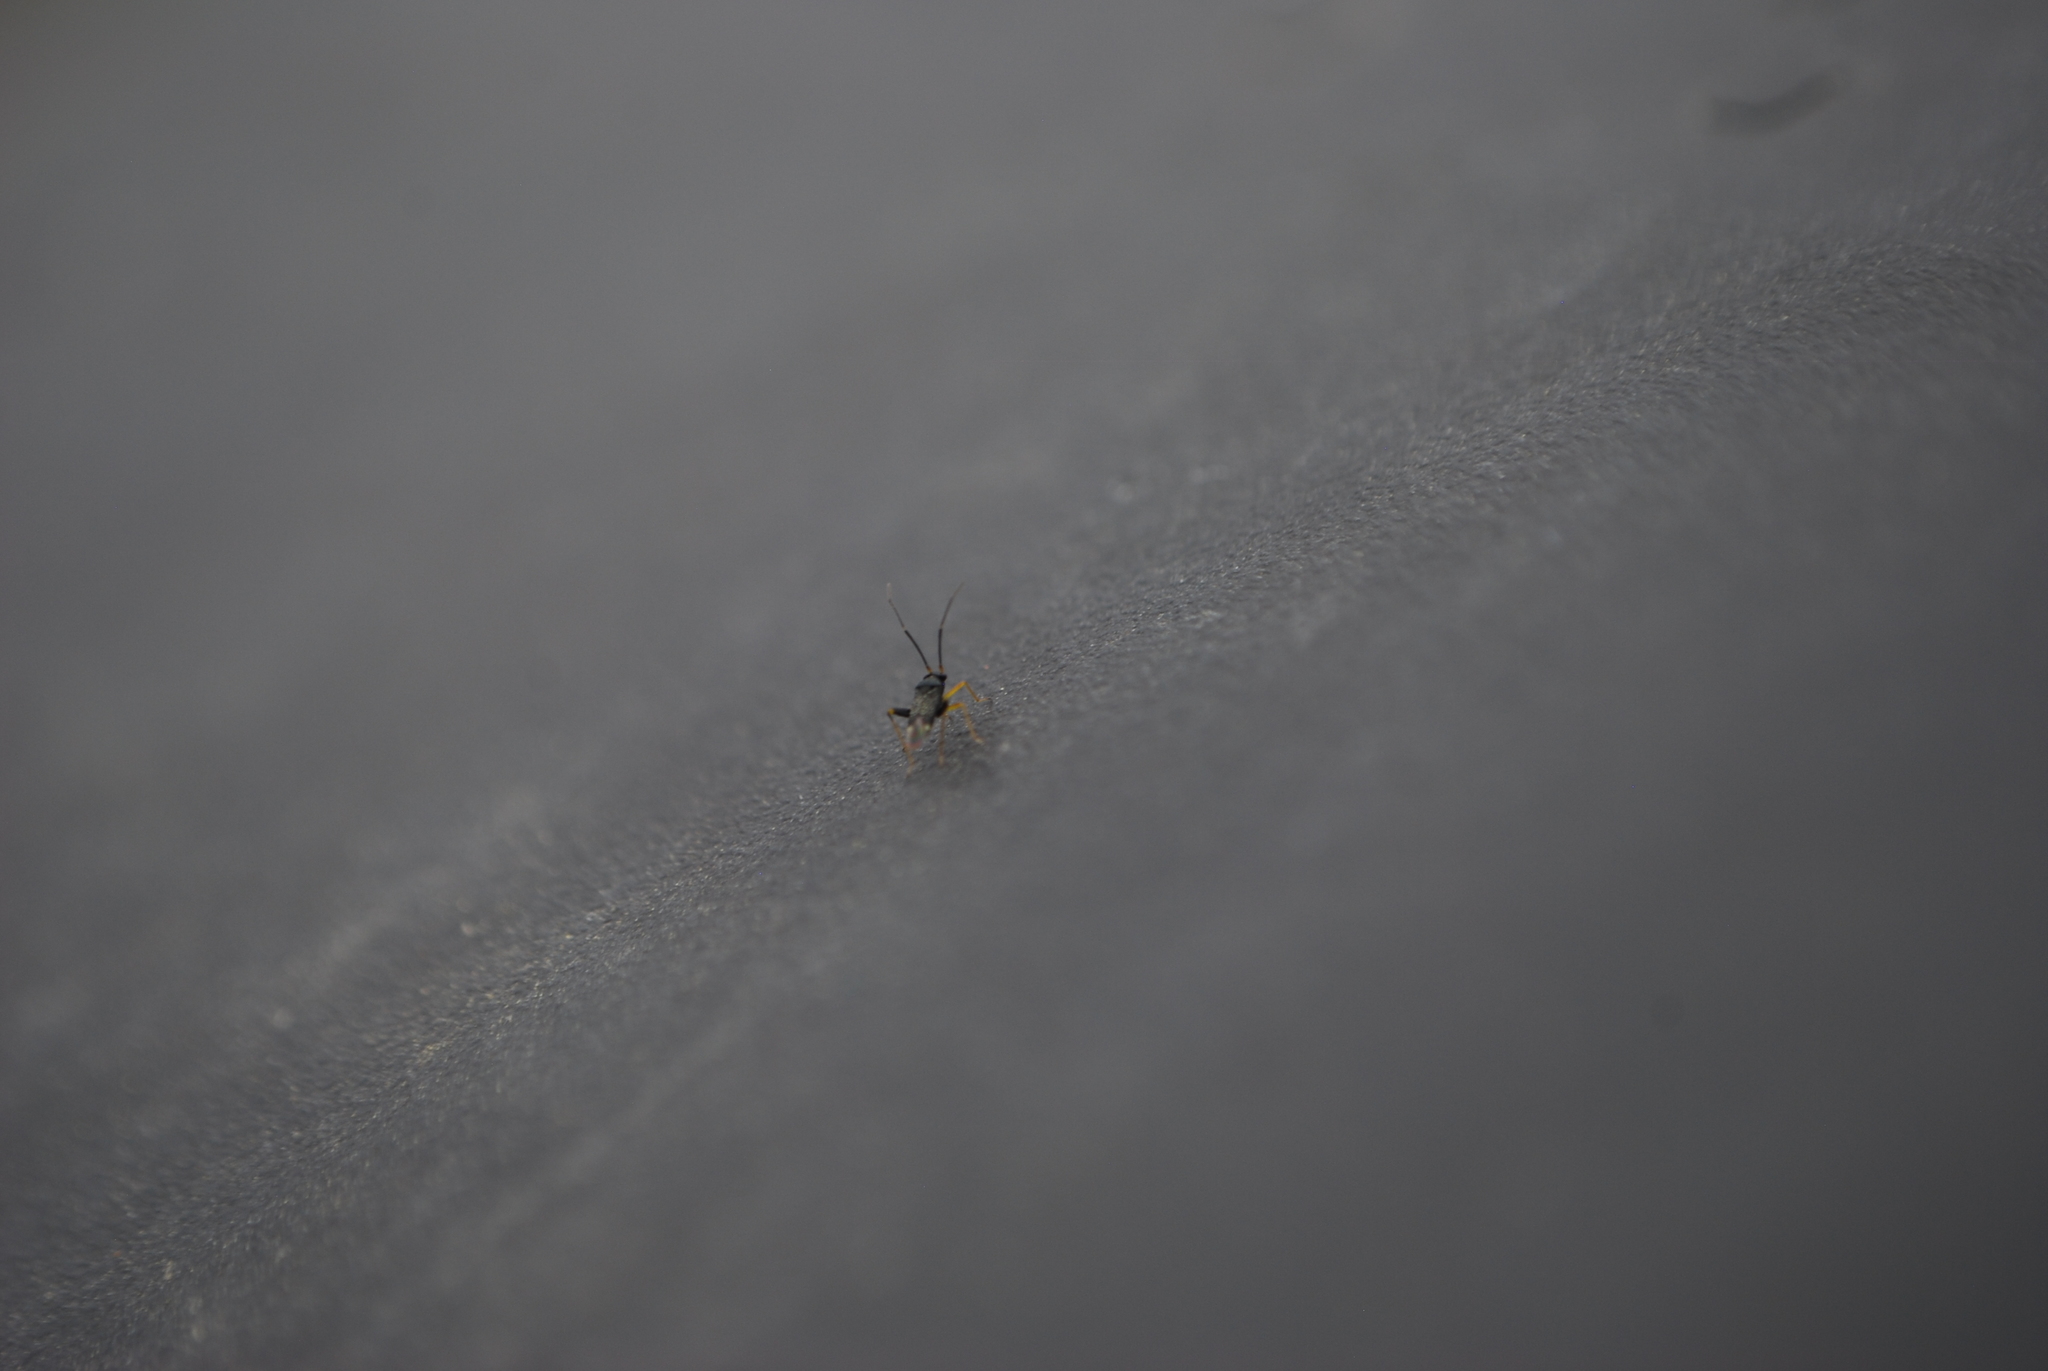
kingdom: Animalia
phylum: Arthropoda
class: Insecta
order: Hemiptera
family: Miridae
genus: Microtechnites
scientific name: Microtechnites bractatus
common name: Garden fleahopper
